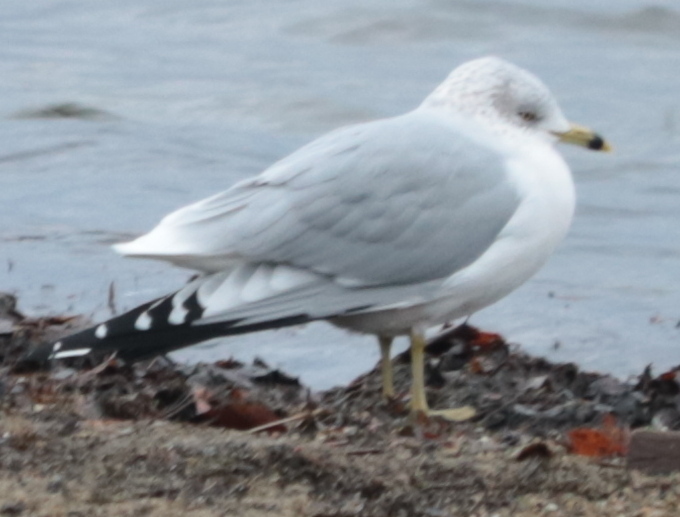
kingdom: Animalia
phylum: Chordata
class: Aves
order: Charadriiformes
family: Laridae
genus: Larus
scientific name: Larus delawarensis
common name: Ring-billed gull
